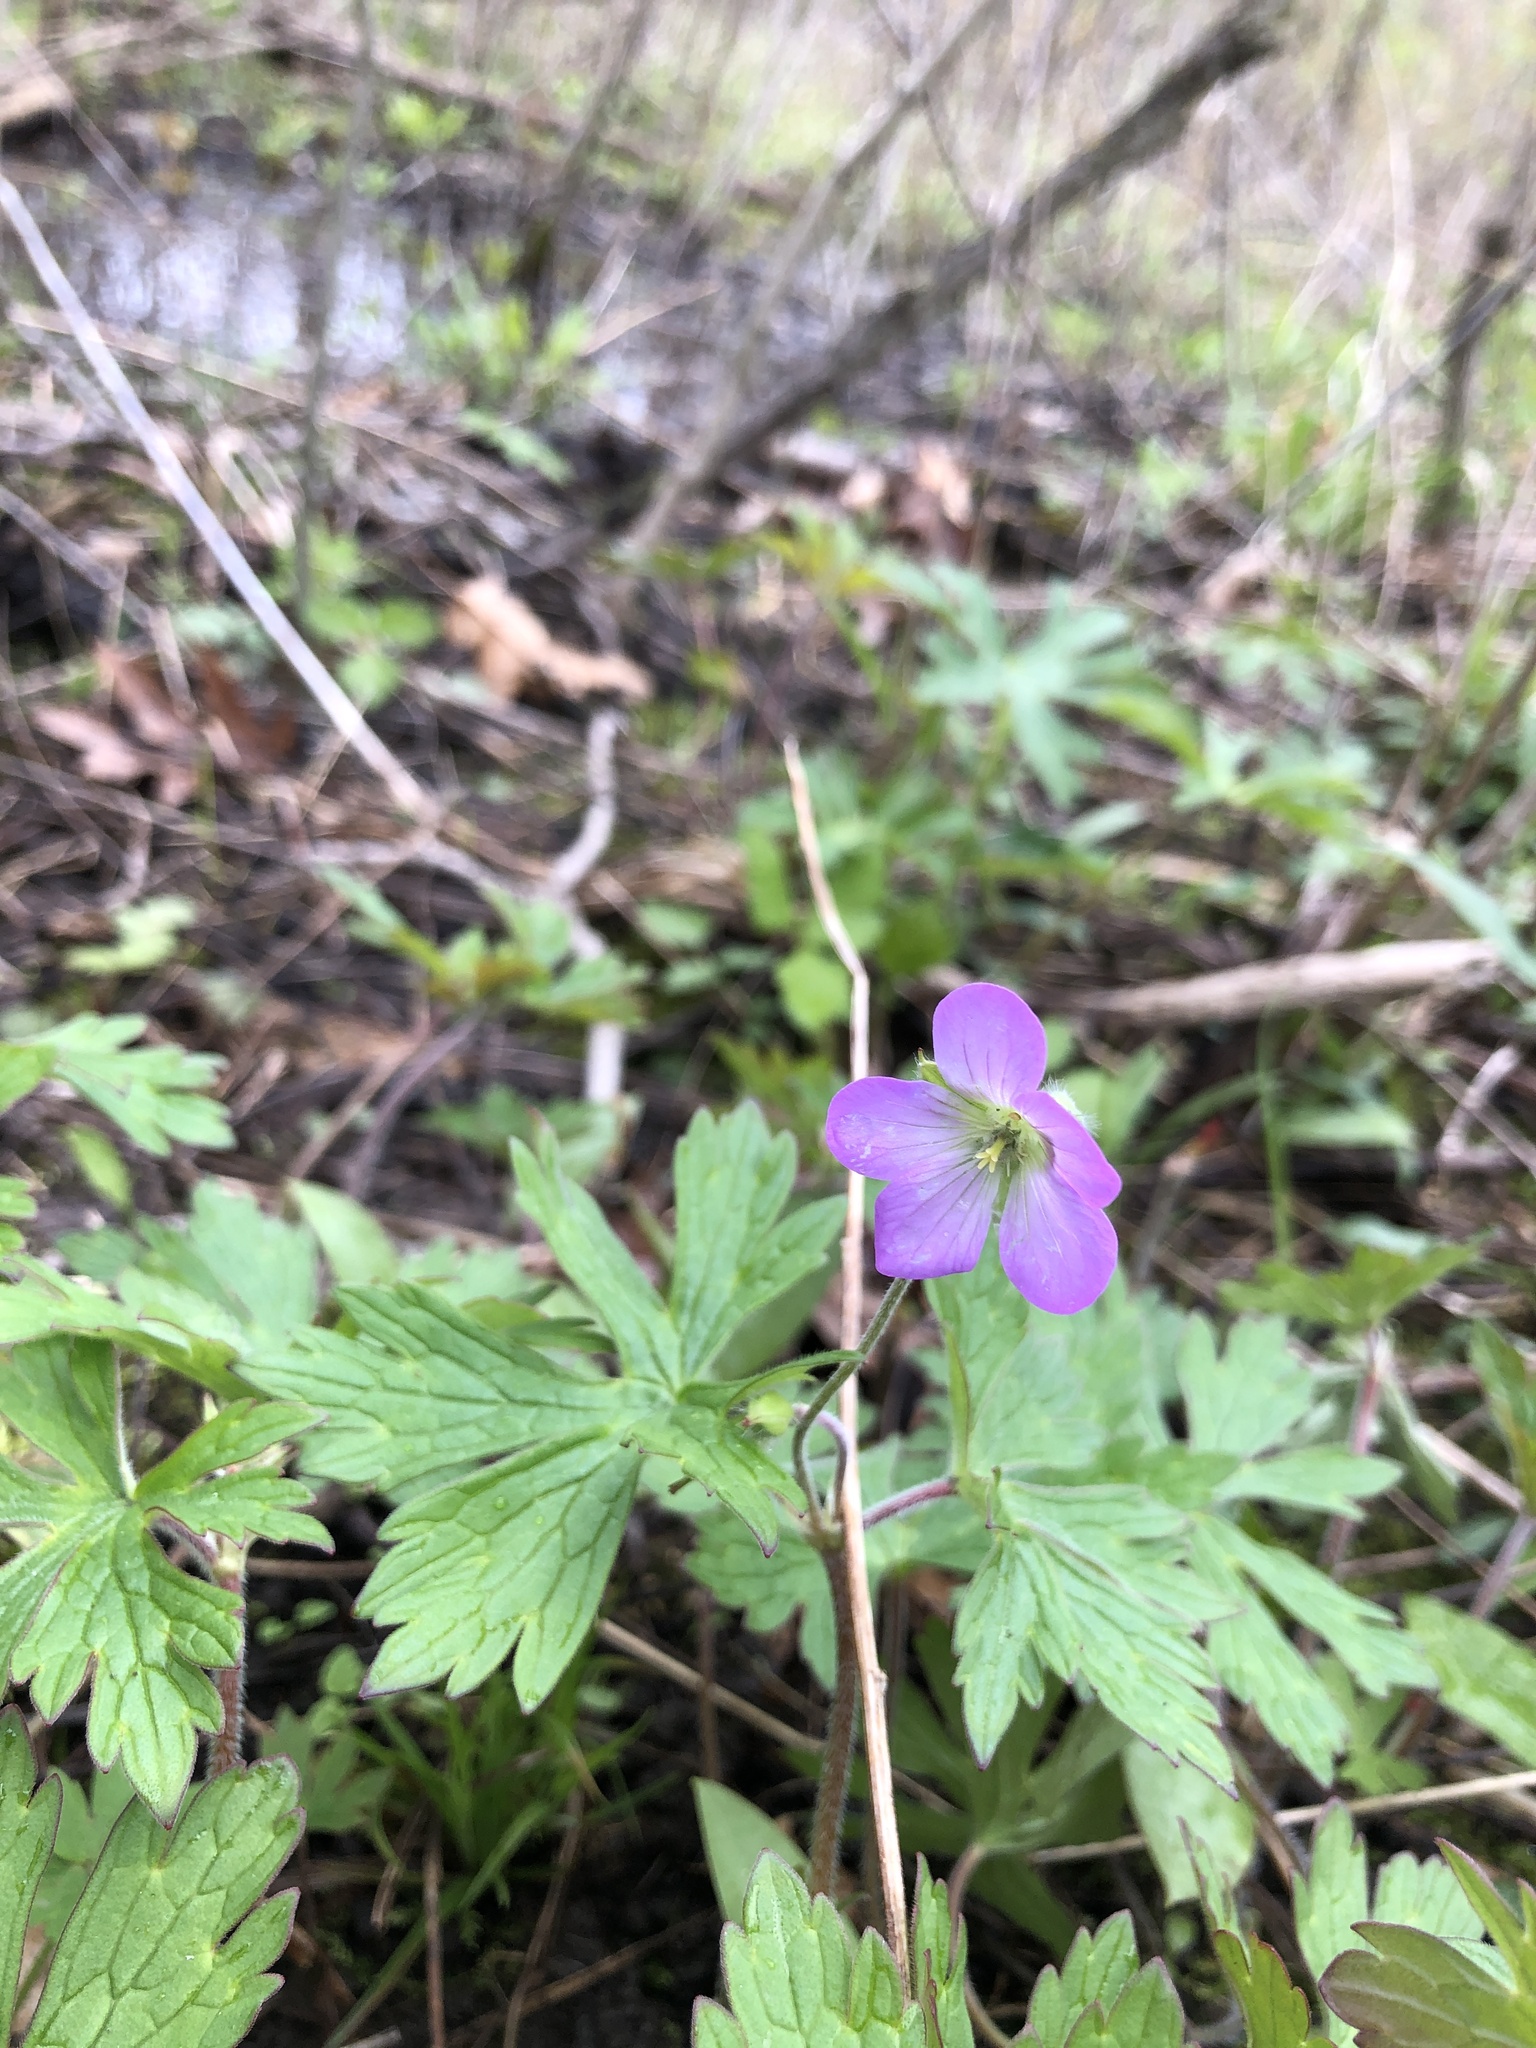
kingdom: Plantae
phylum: Tracheophyta
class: Magnoliopsida
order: Geraniales
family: Geraniaceae
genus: Geranium
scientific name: Geranium maculatum
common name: Spotted geranium
